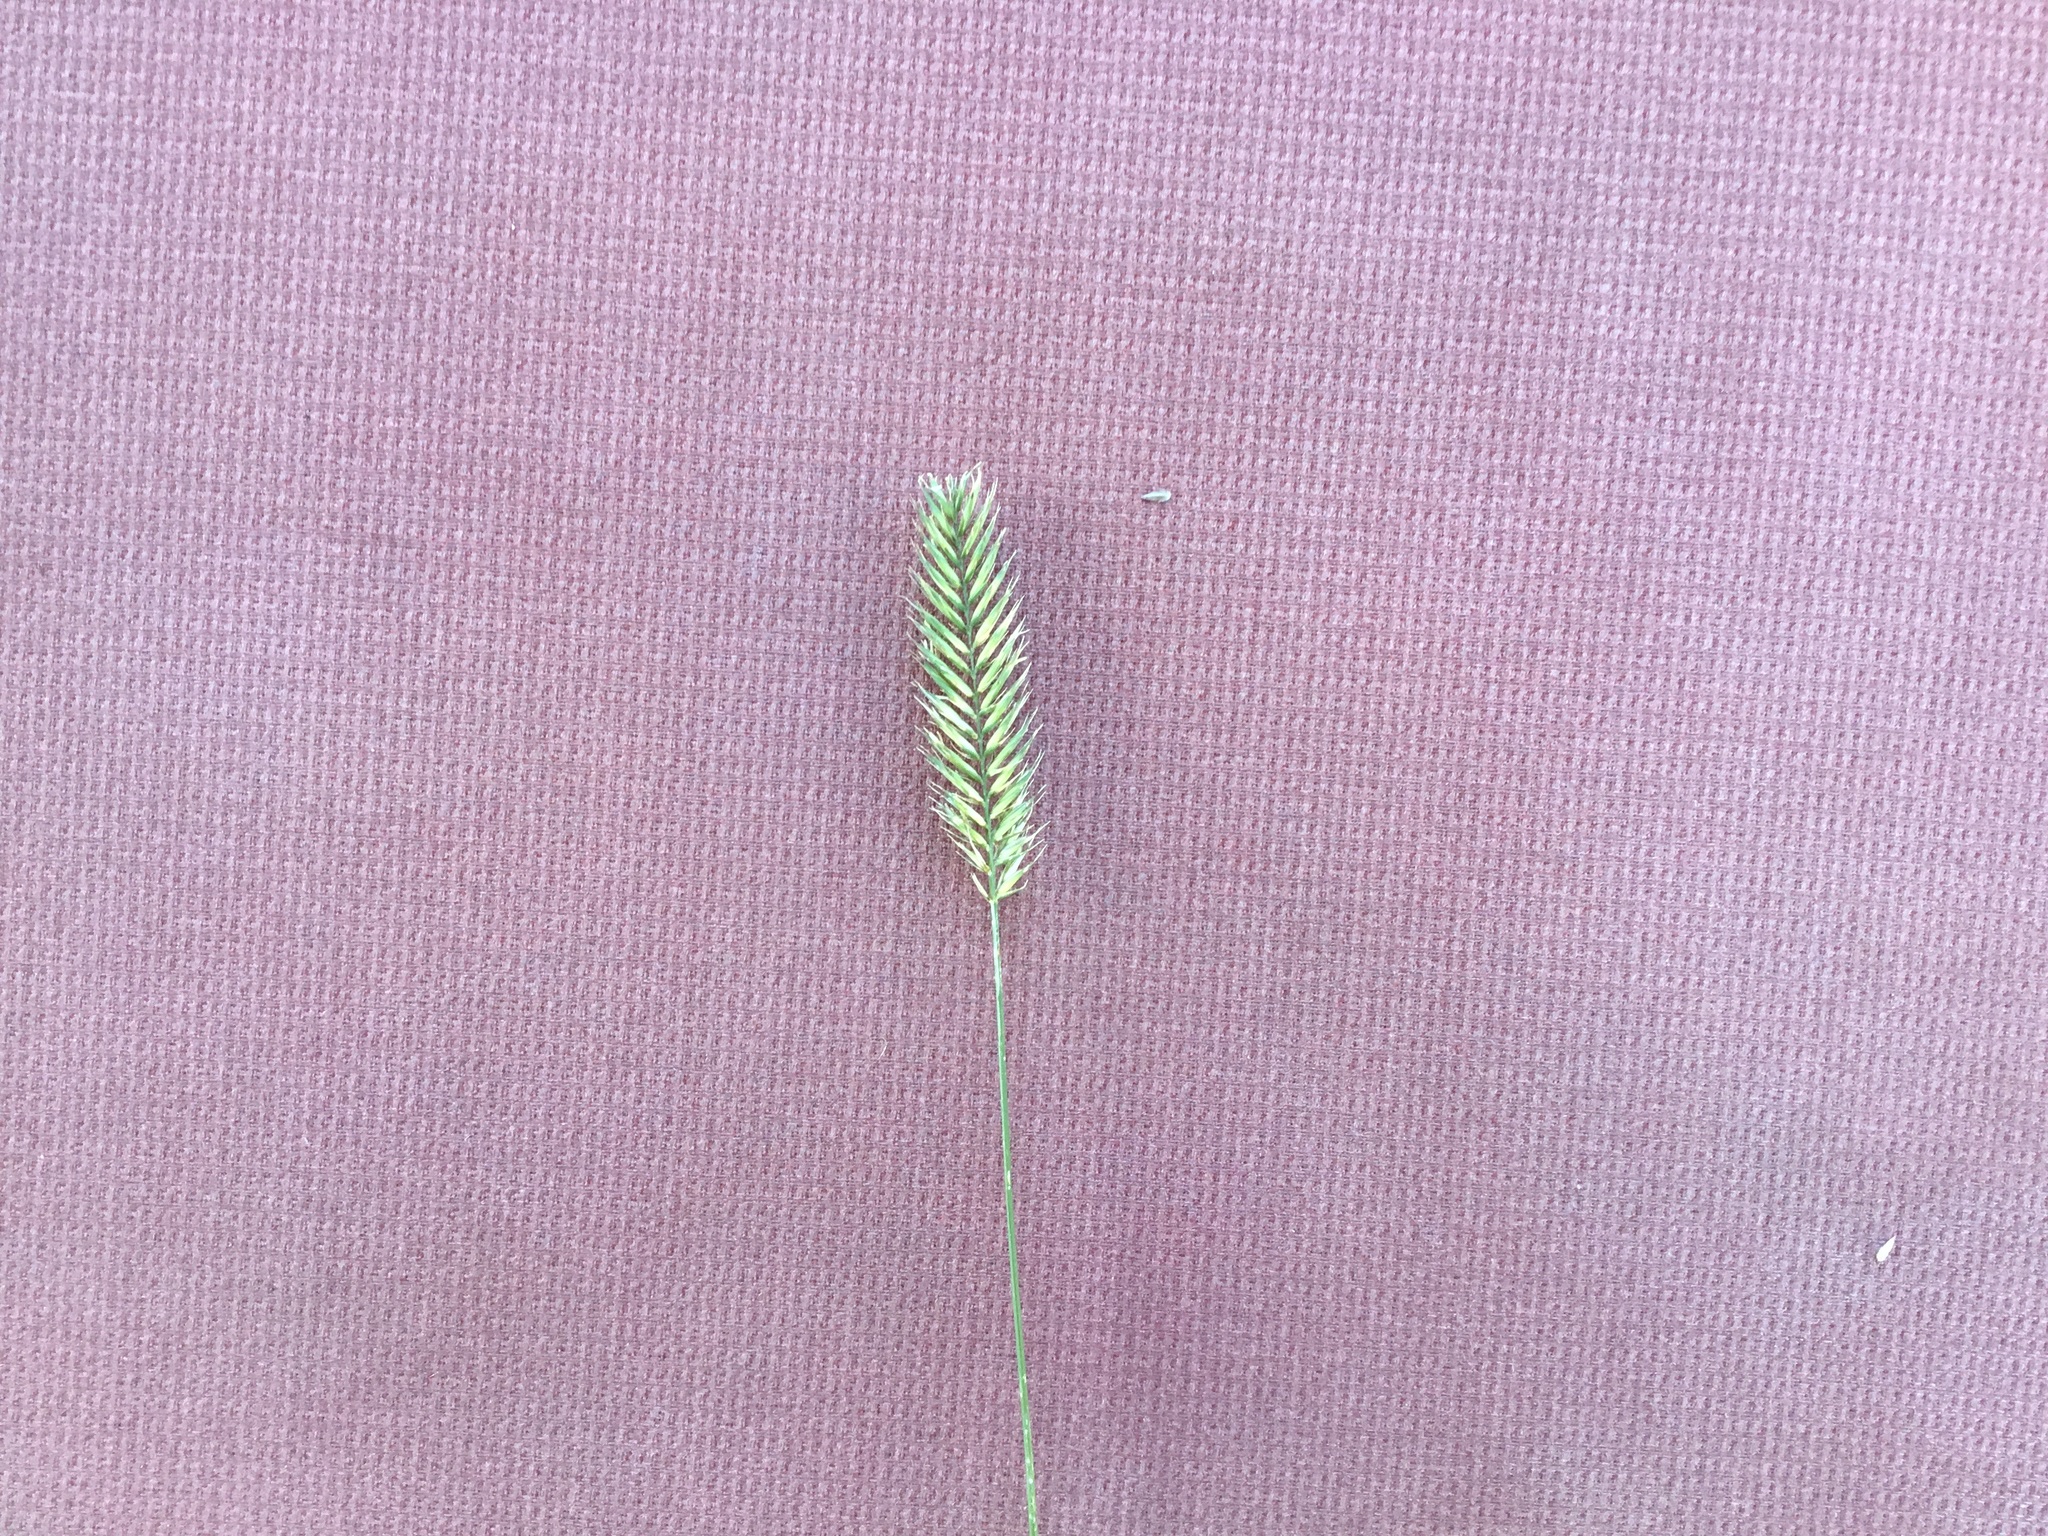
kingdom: Plantae
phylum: Tracheophyta
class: Liliopsida
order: Poales
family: Poaceae
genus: Agropyron
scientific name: Agropyron cristatum
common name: Crested wheatgrass
